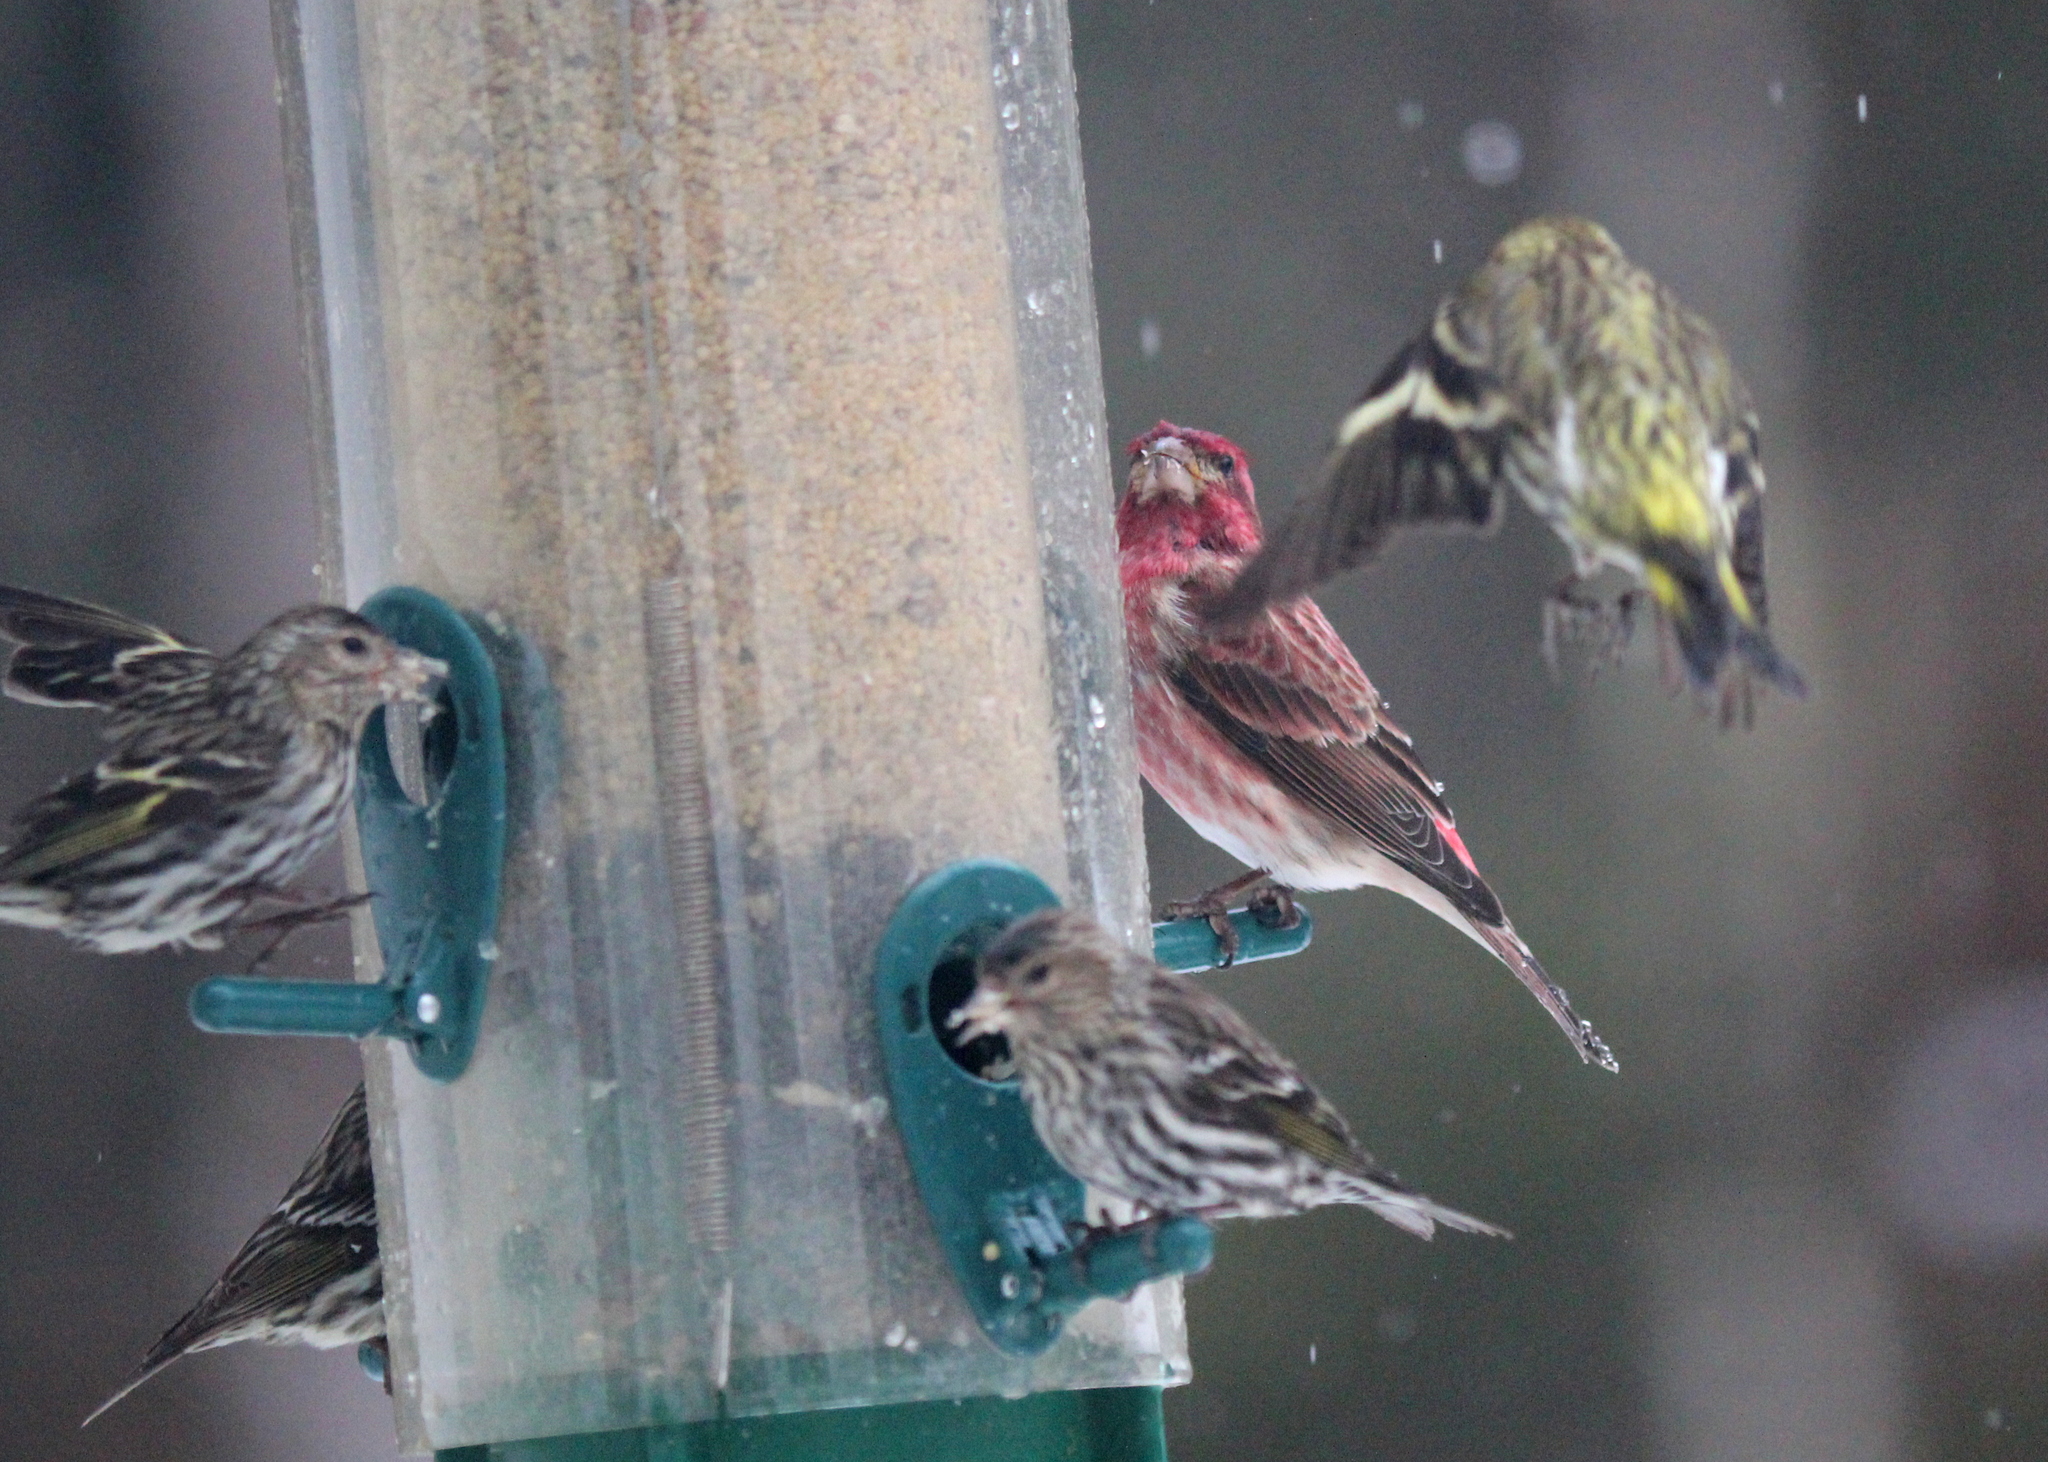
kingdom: Animalia
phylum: Chordata
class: Aves
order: Passeriformes
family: Fringillidae
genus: Haemorhous
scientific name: Haemorhous purpureus
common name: Purple finch
